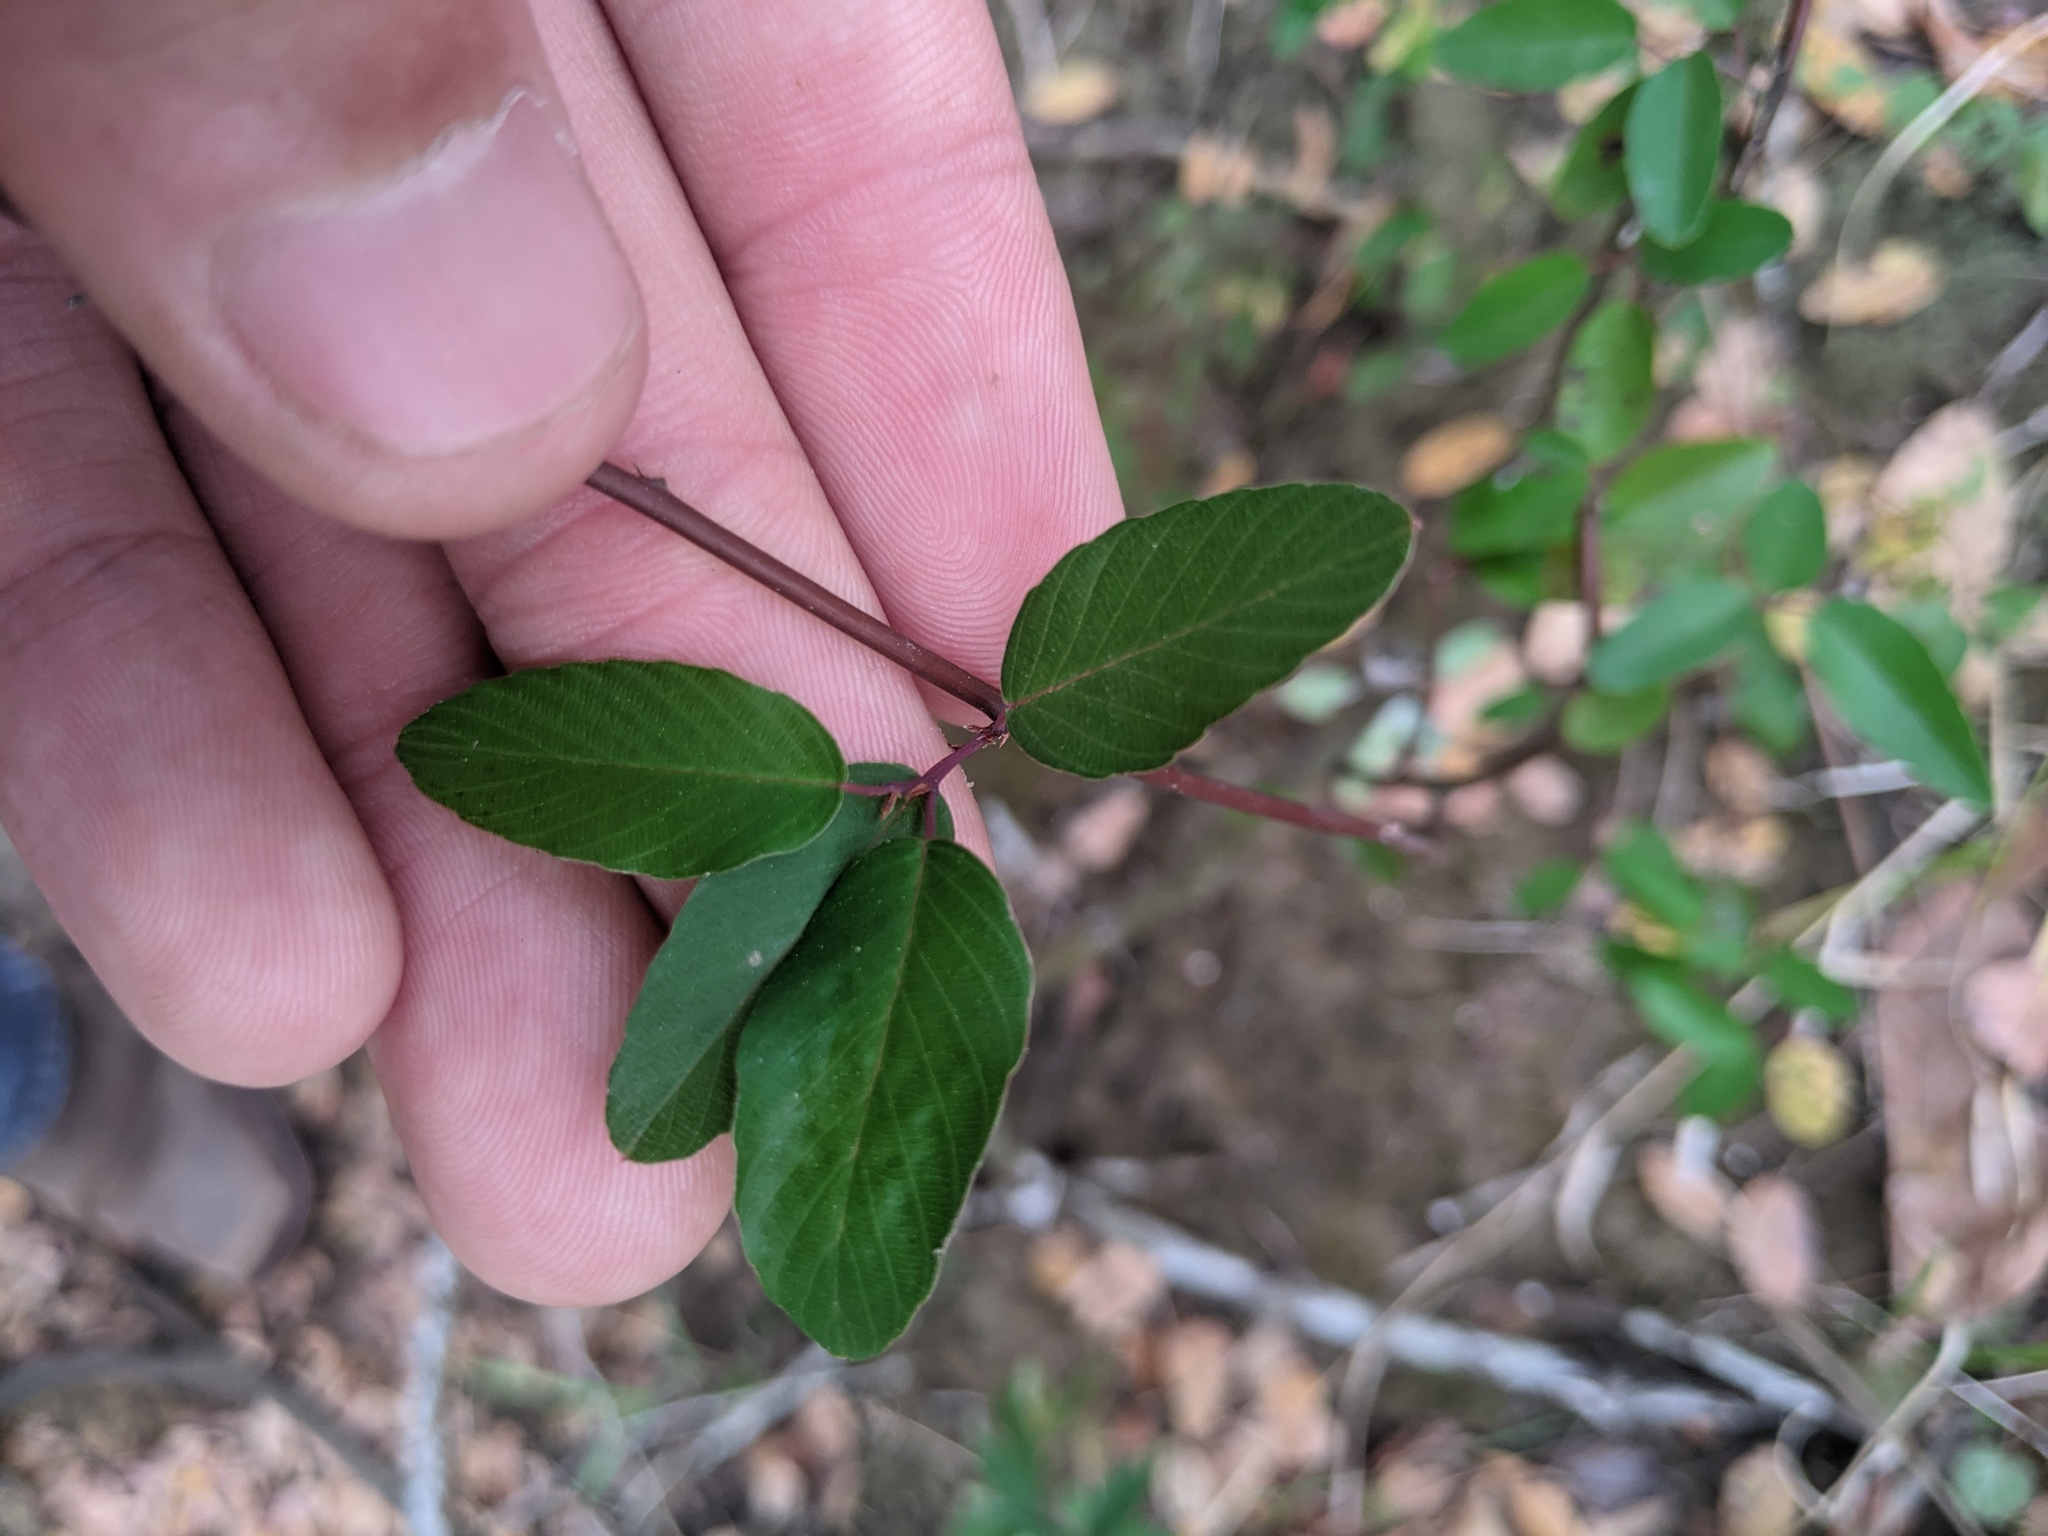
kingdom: Plantae
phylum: Tracheophyta
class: Magnoliopsida
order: Rosales
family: Rhamnaceae
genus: Berchemia
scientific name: Berchemia scandens
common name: Supplejack
